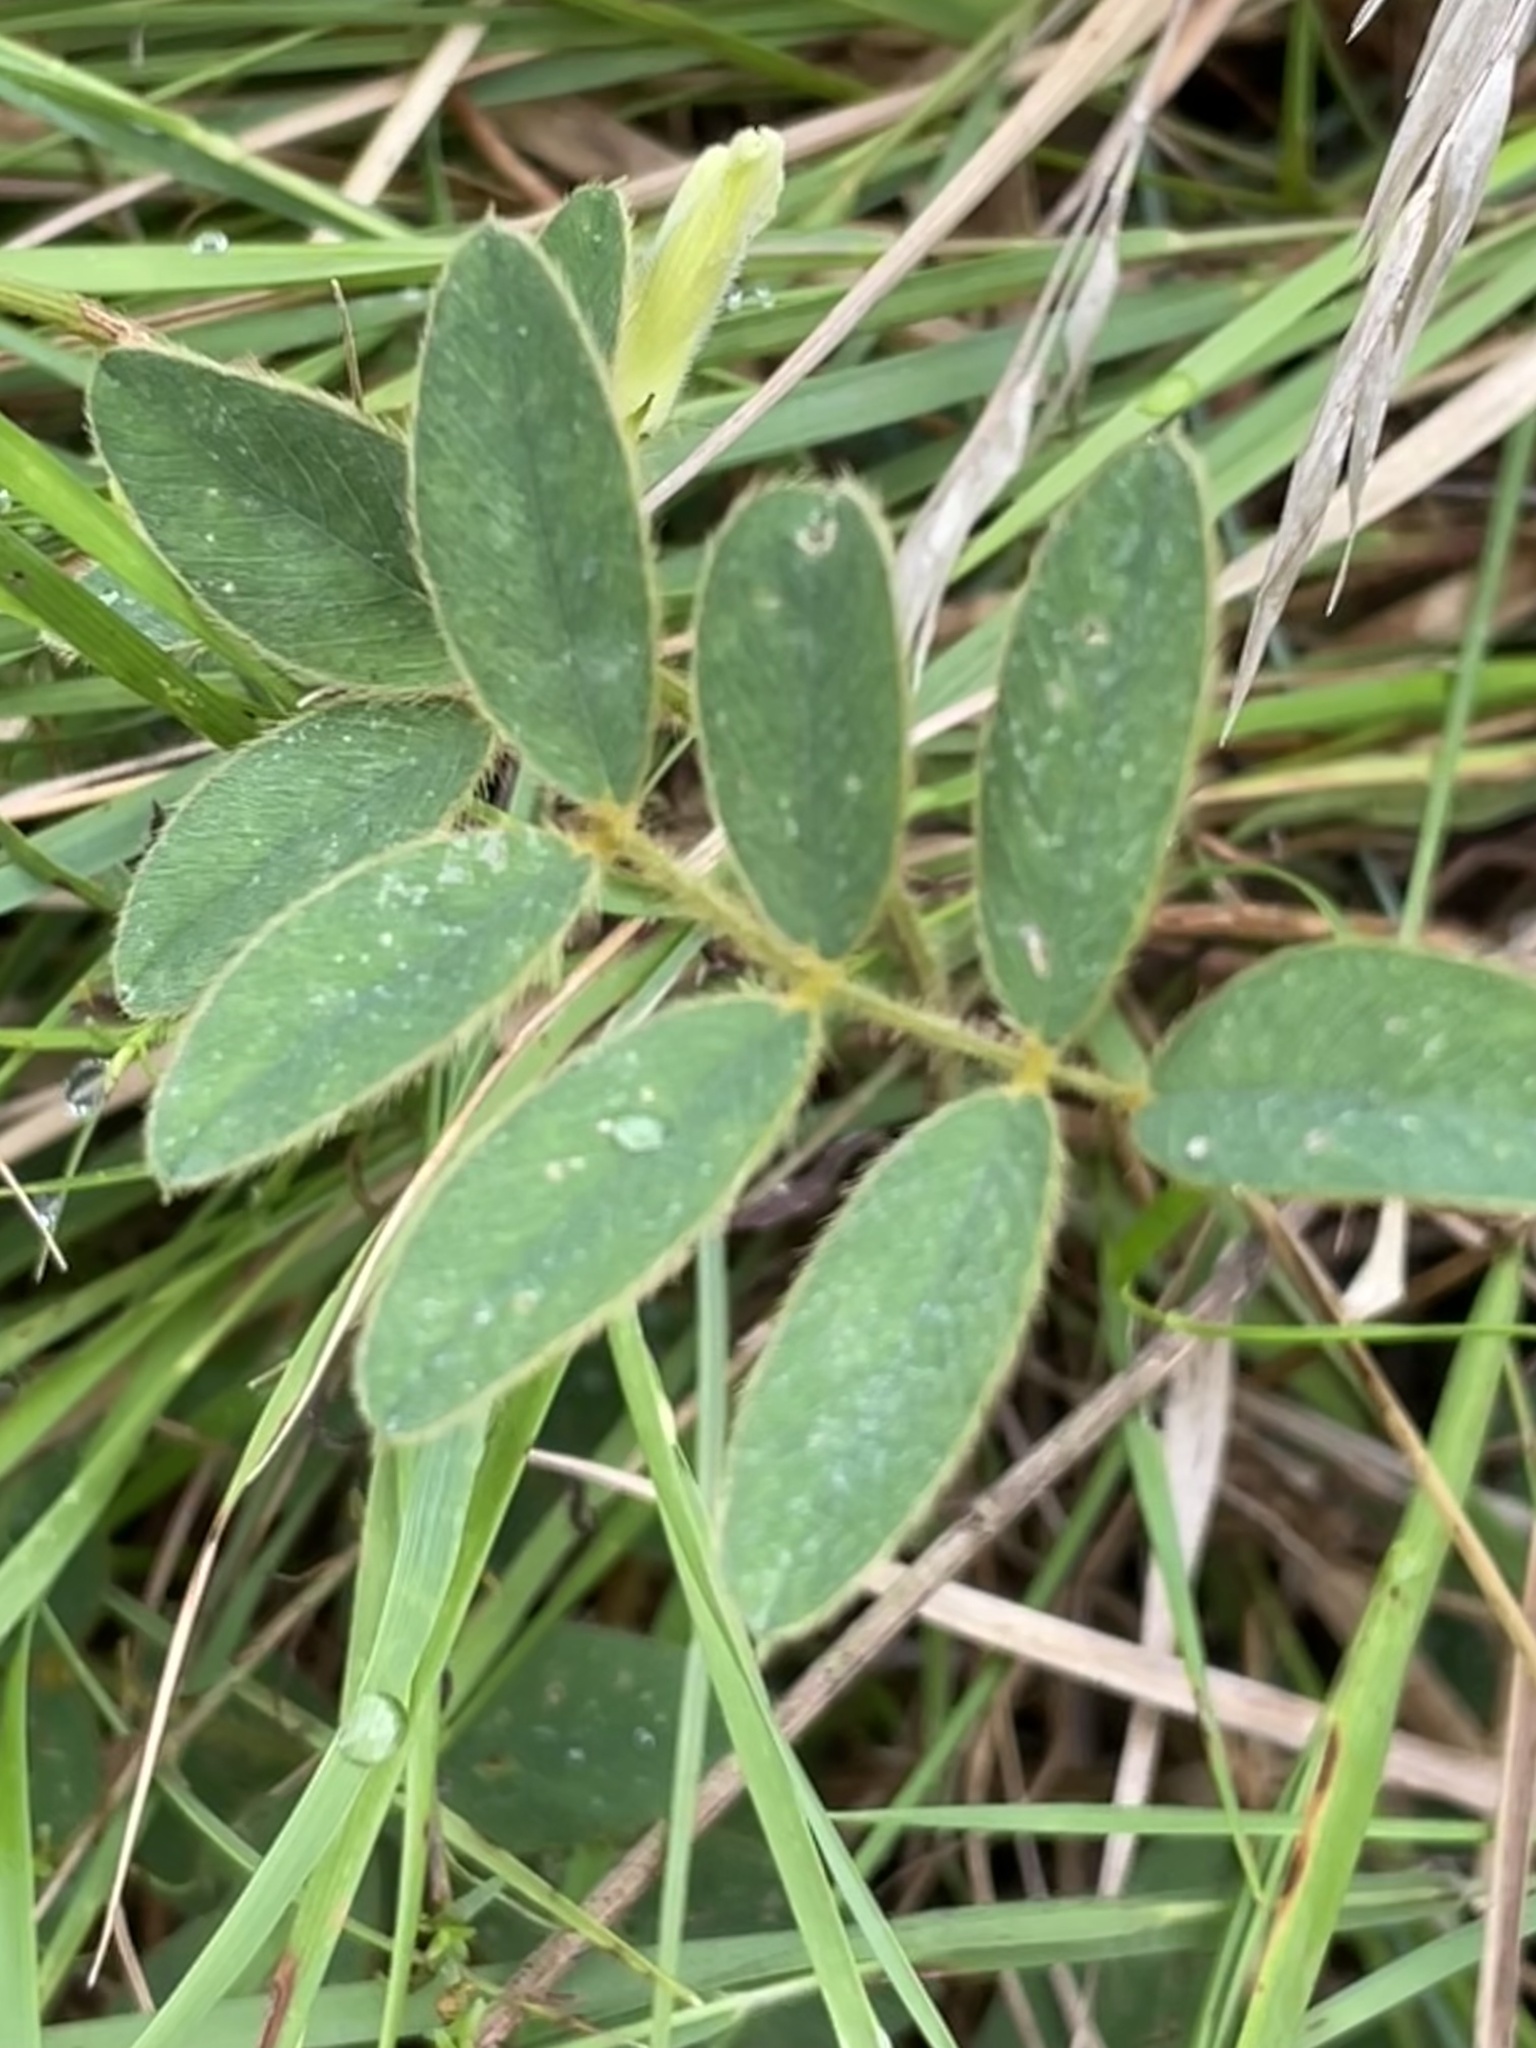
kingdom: Plantae
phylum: Tracheophyta
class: Magnoliopsida
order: Fabales
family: Fabaceae
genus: Tephrosia
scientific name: Tephrosia spicata
